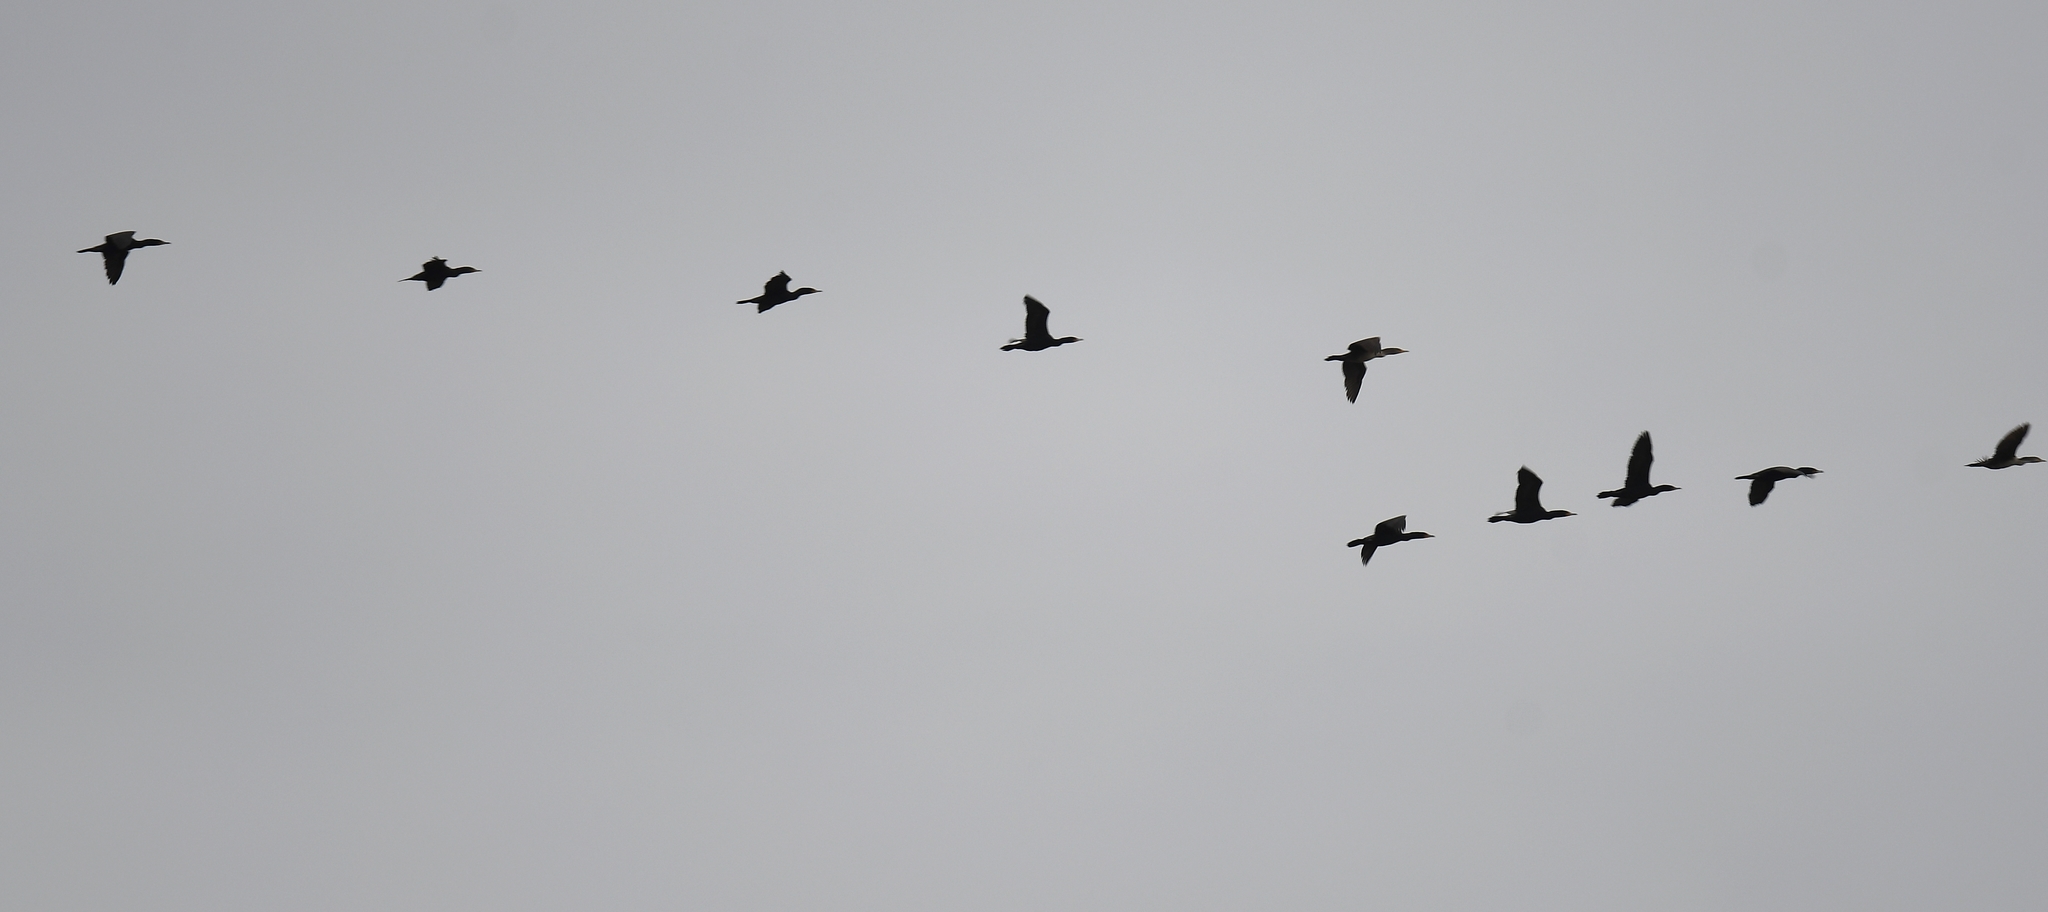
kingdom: Animalia
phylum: Chordata
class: Aves
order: Suliformes
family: Phalacrocoracidae
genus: Phalacrocorax
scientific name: Phalacrocorax auritus
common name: Double-crested cormorant
